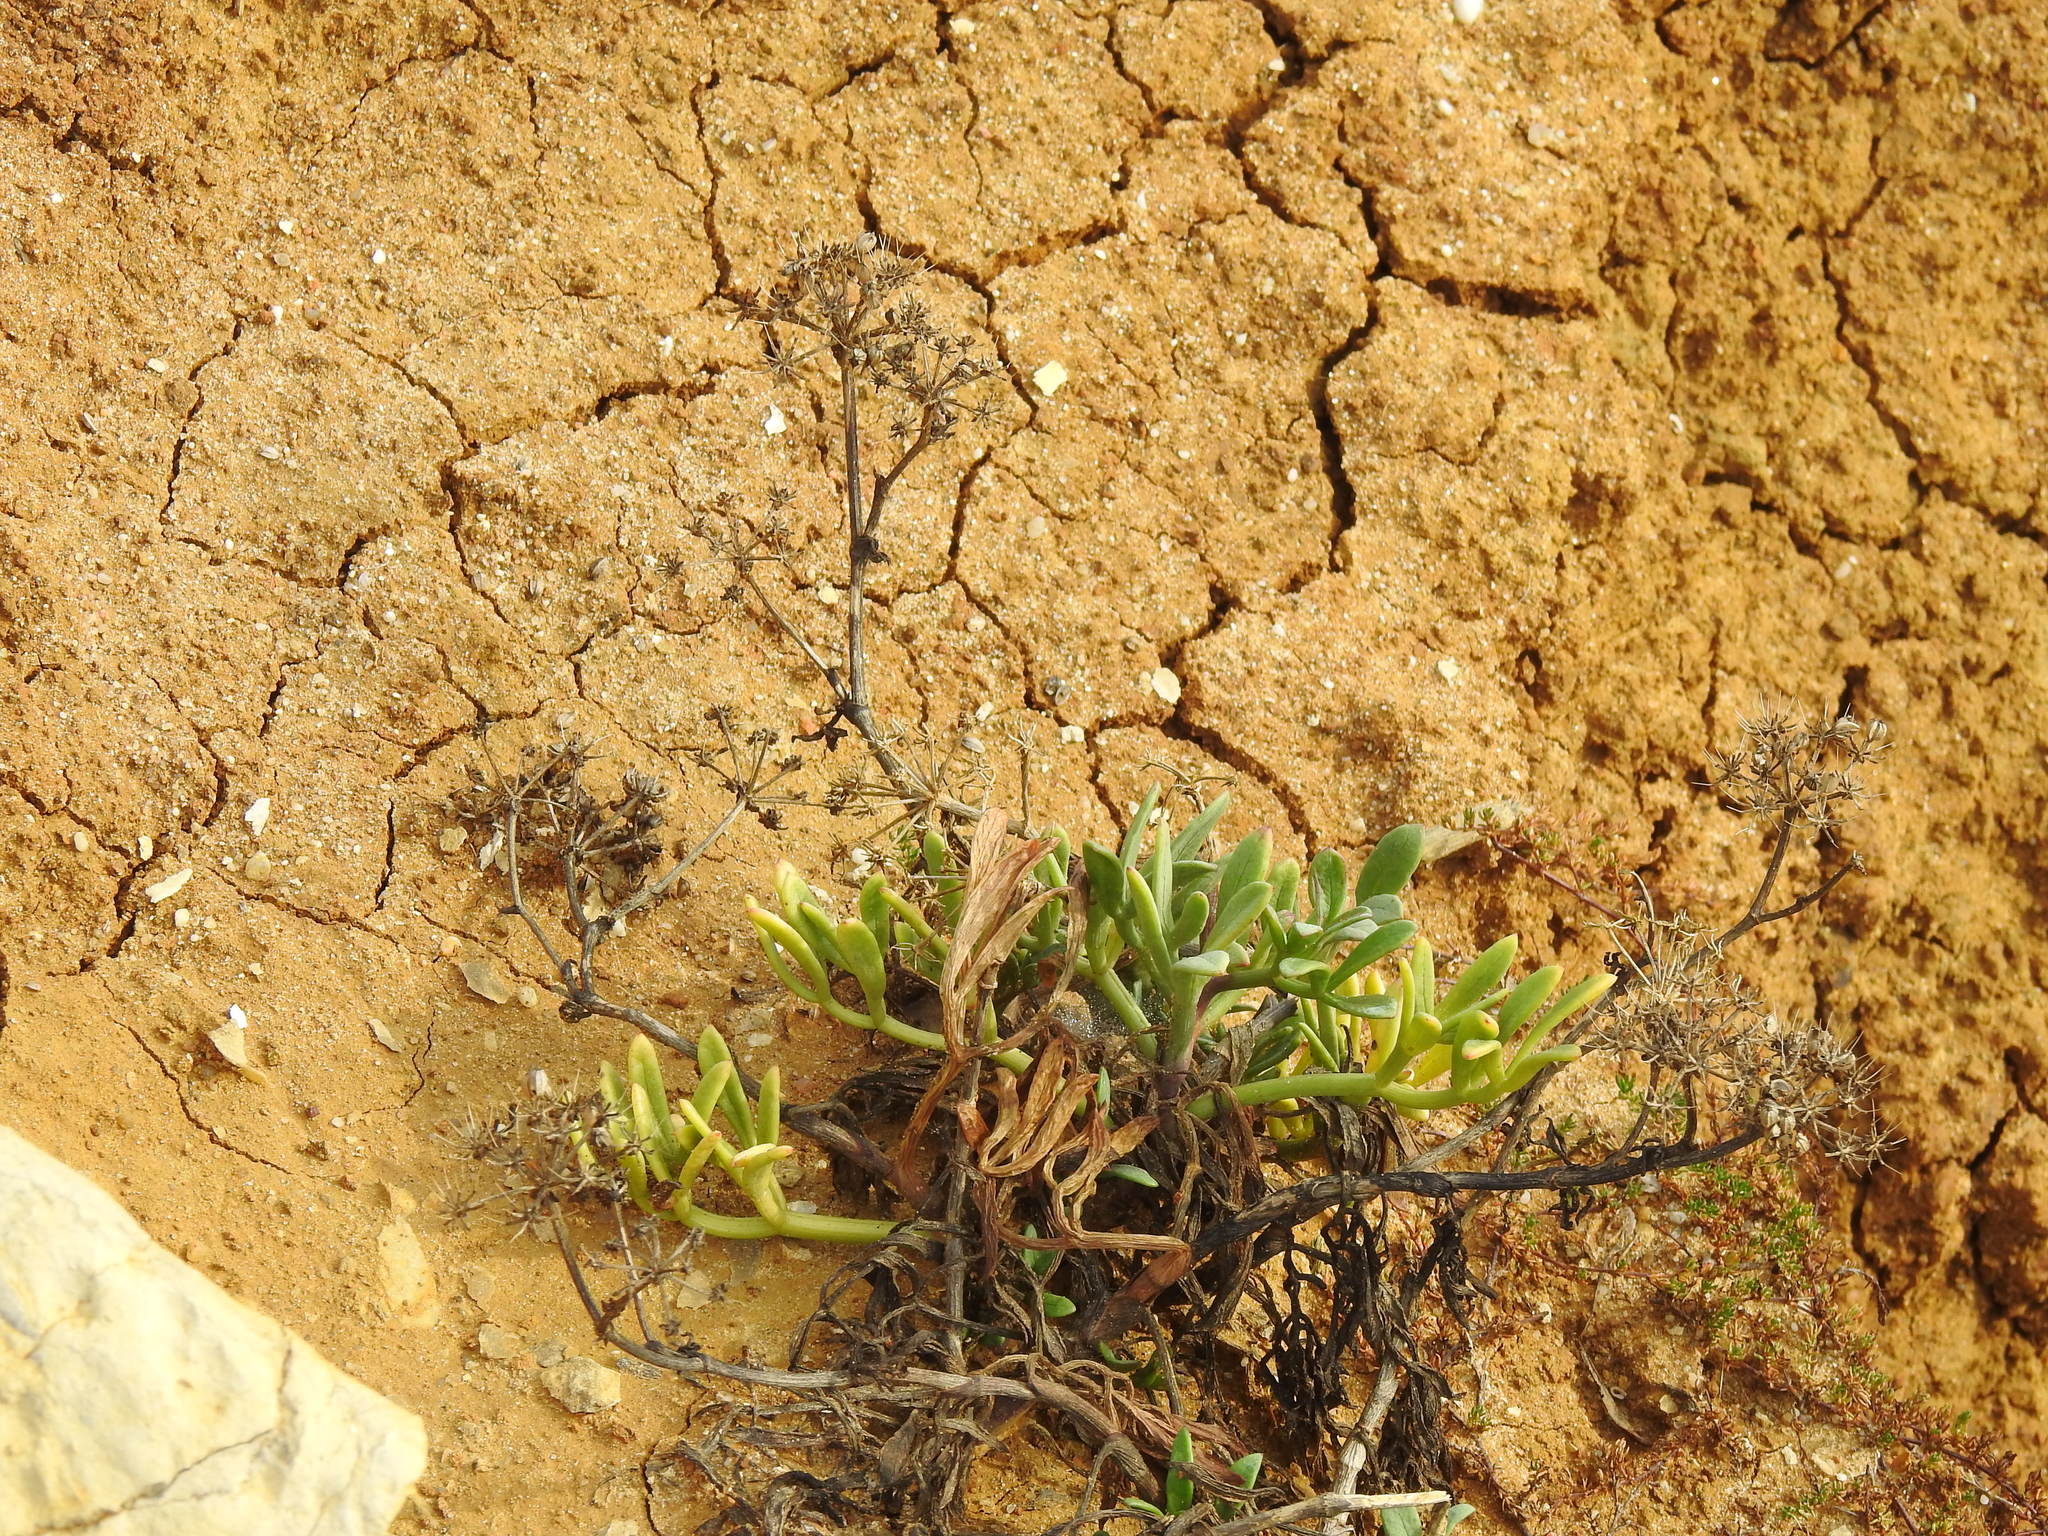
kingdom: Plantae
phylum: Tracheophyta
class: Magnoliopsida
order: Apiales
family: Apiaceae
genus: Crithmum
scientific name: Crithmum maritimum
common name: Rock samphire
